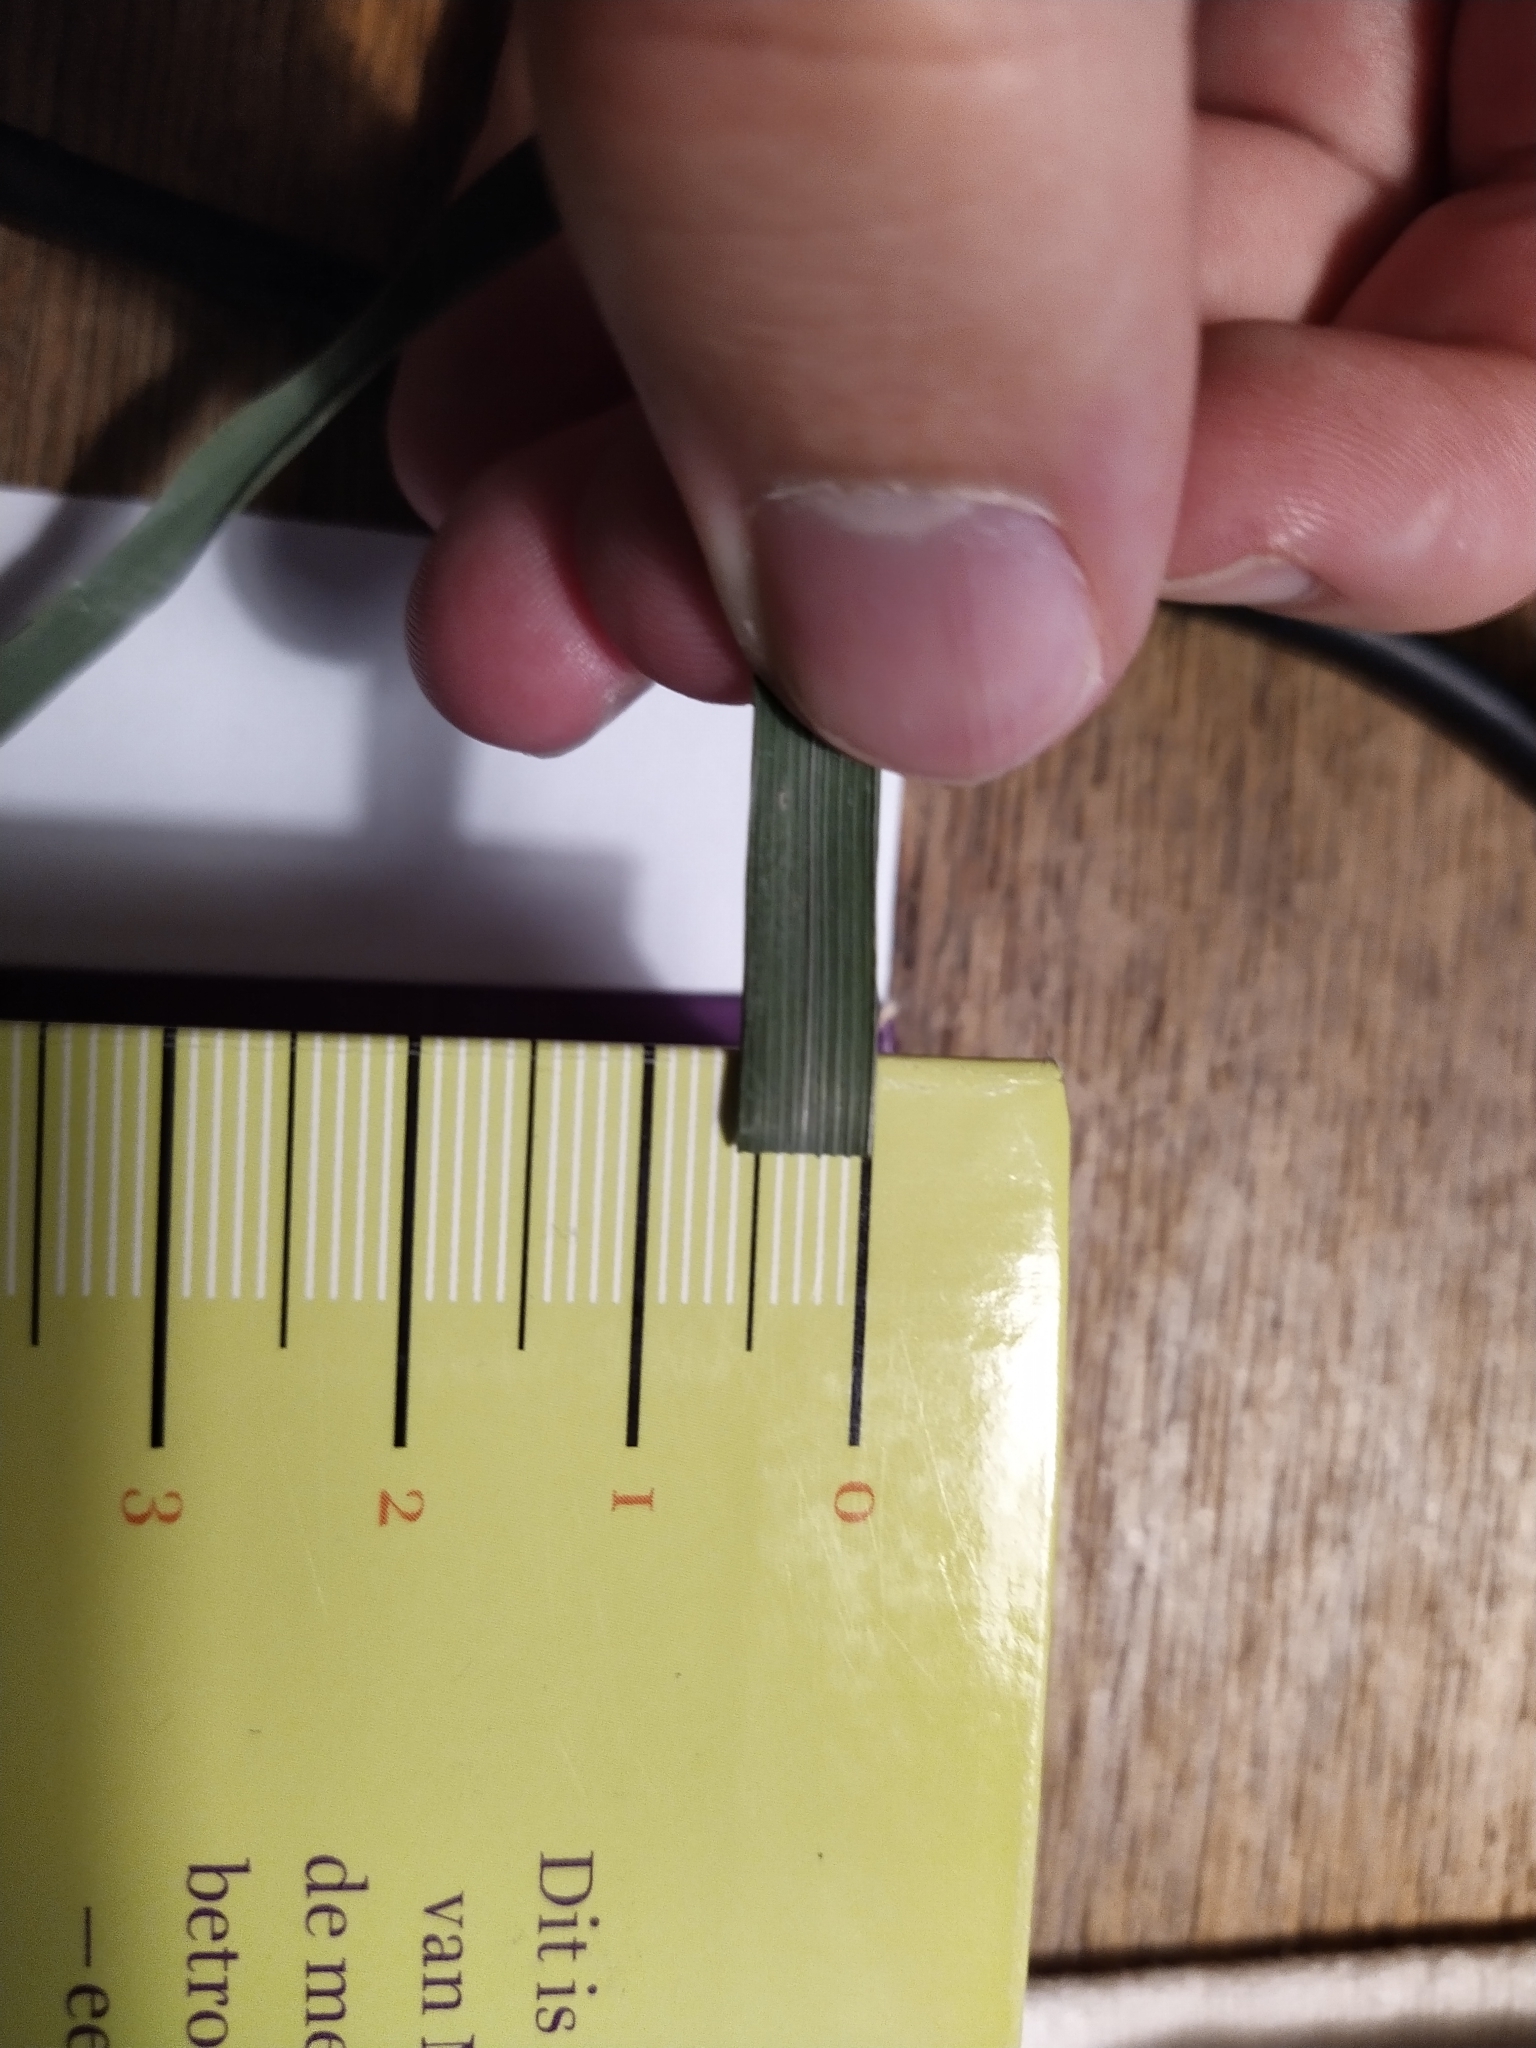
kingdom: Plantae
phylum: Tracheophyta
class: Liliopsida
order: Poales
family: Poaceae
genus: Dactylis
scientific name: Dactylis glomerata
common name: Orchardgrass
